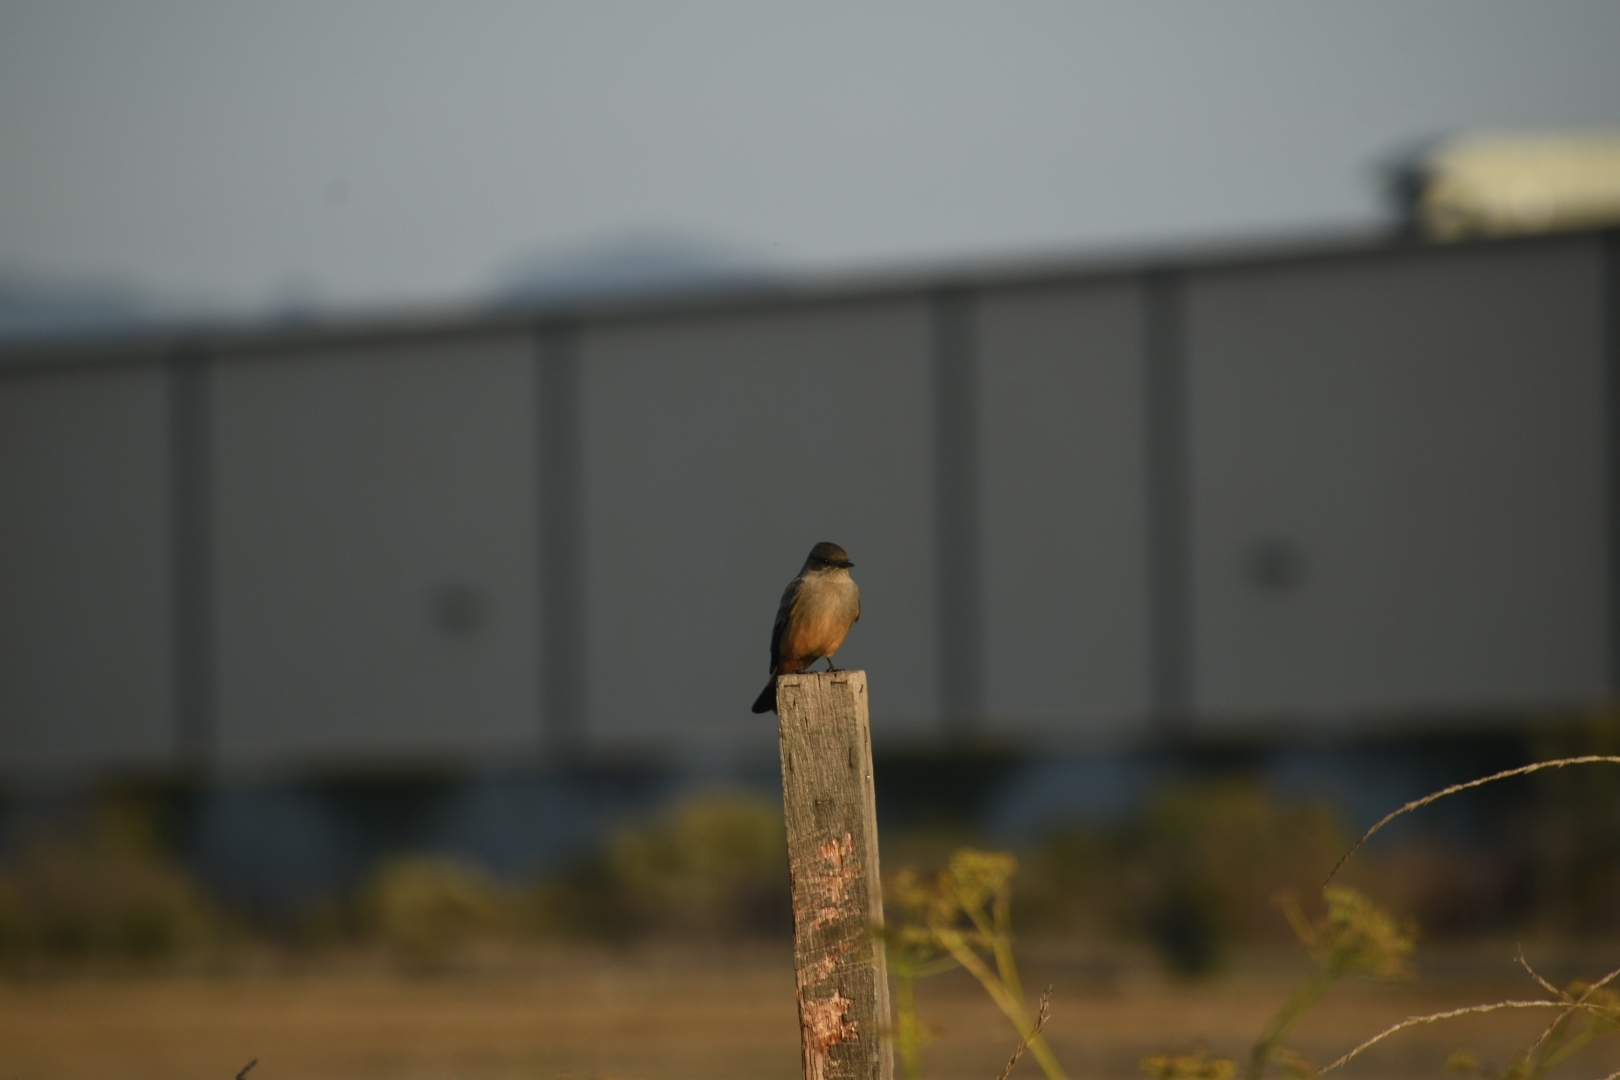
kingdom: Animalia
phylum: Chordata
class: Aves
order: Passeriformes
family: Tyrannidae
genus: Sayornis
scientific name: Sayornis saya
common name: Say's phoebe
